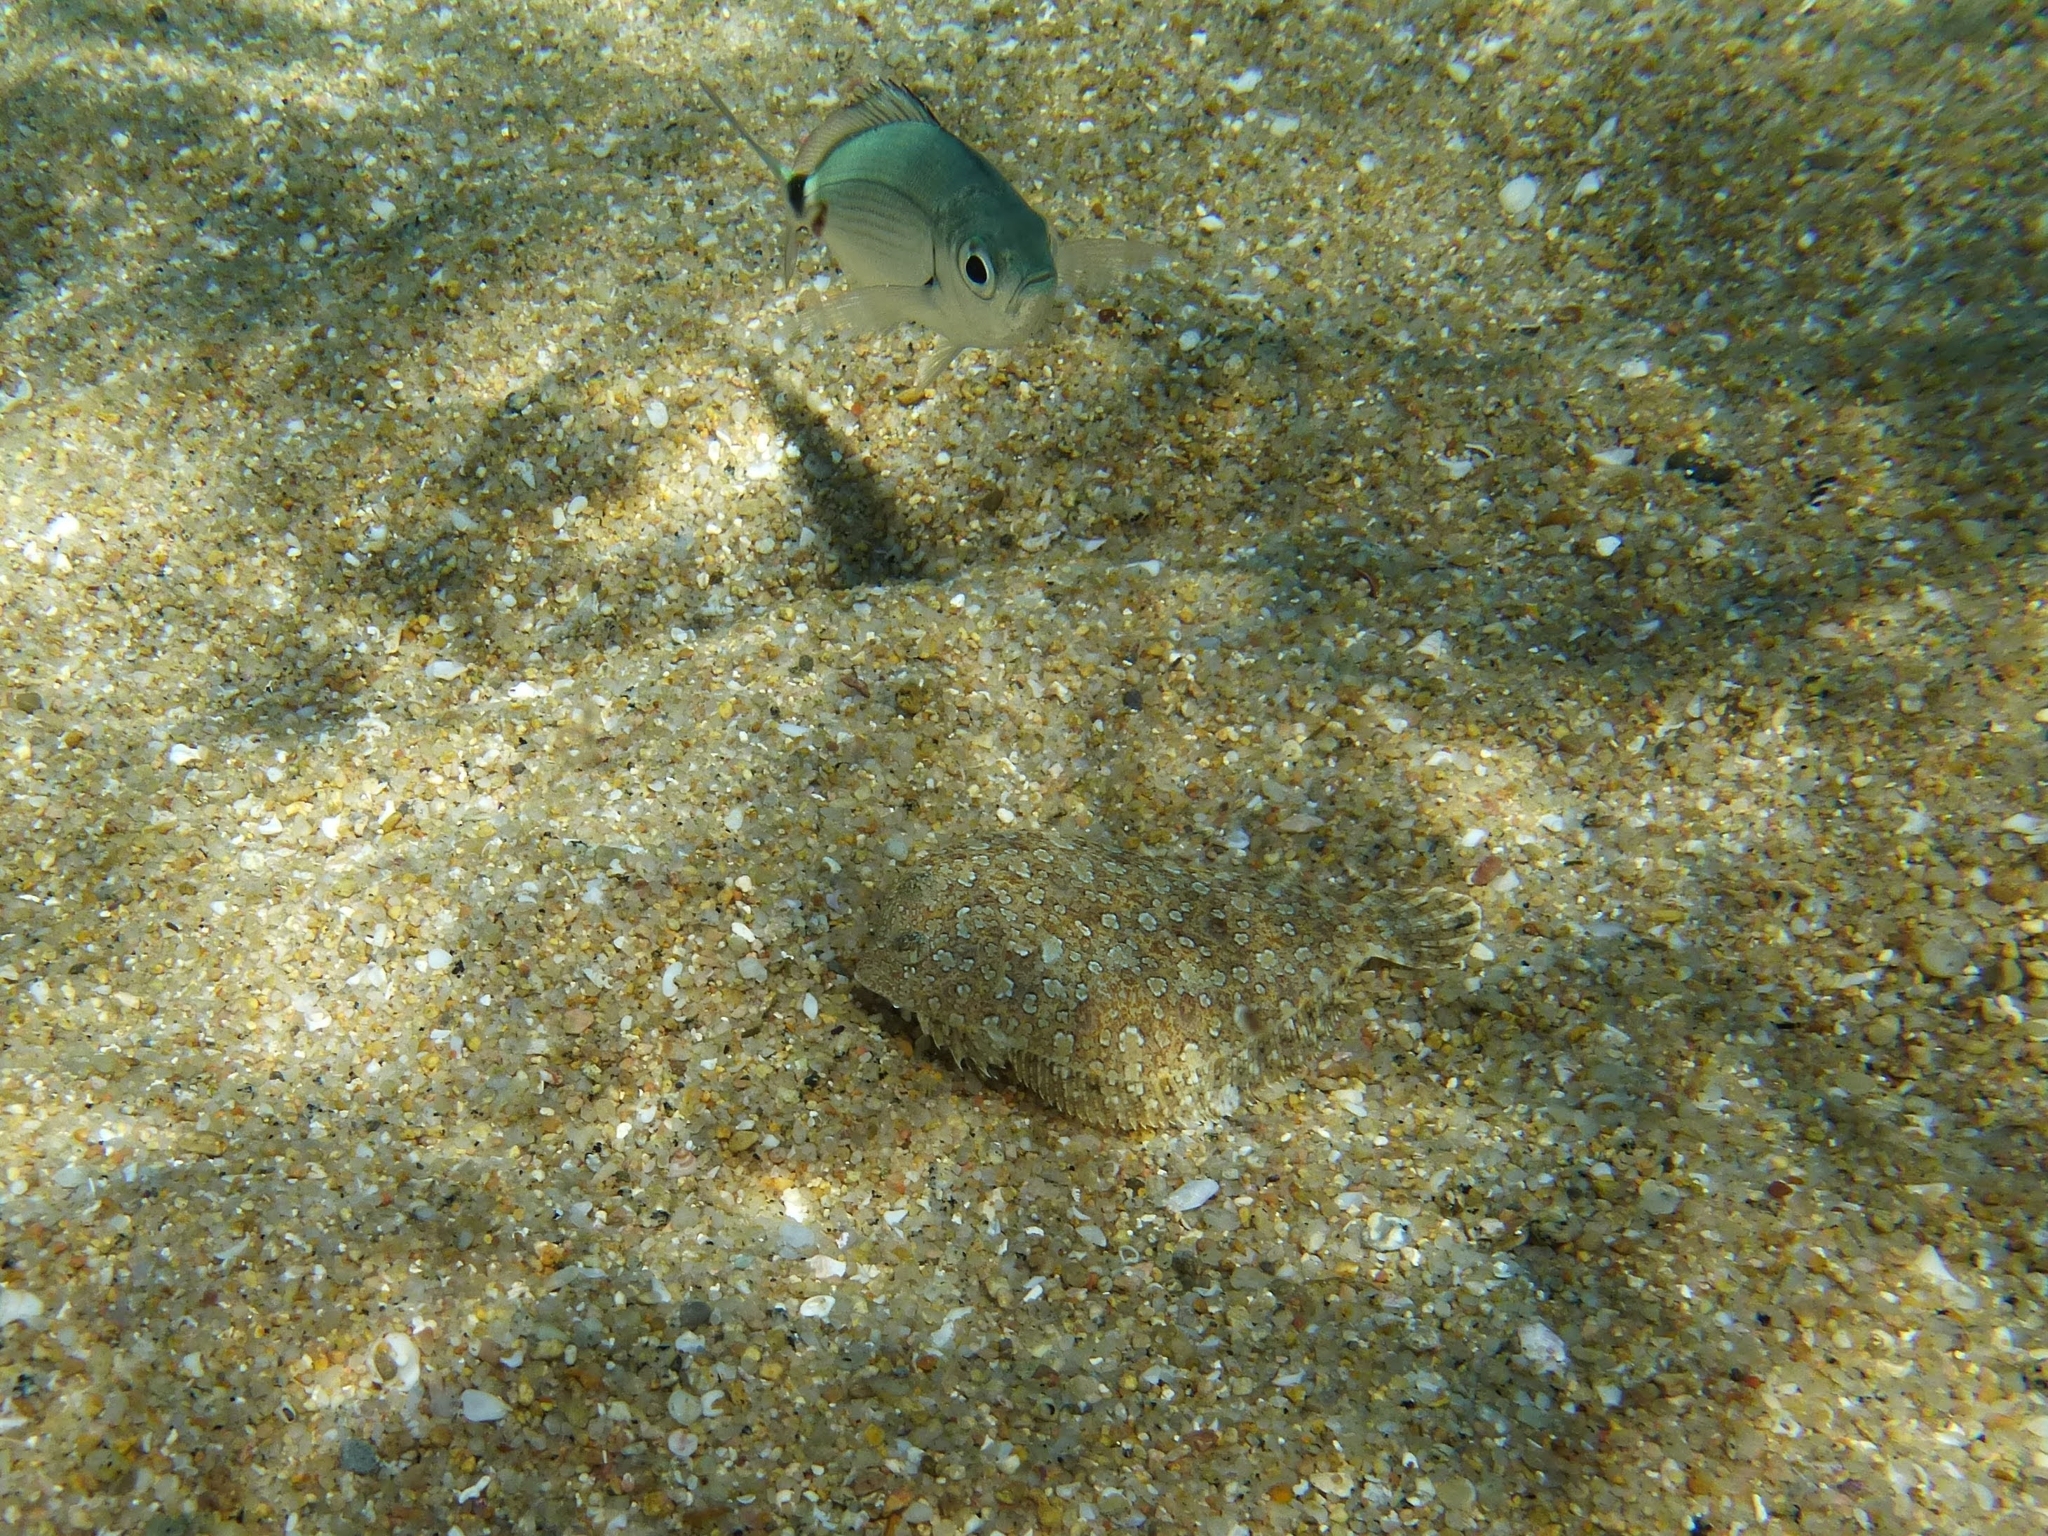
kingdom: Animalia
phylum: Chordata
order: Pleuronectiformes
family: Bothidae
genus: Bothus
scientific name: Bothus podas
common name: Wide-eyed flounder
